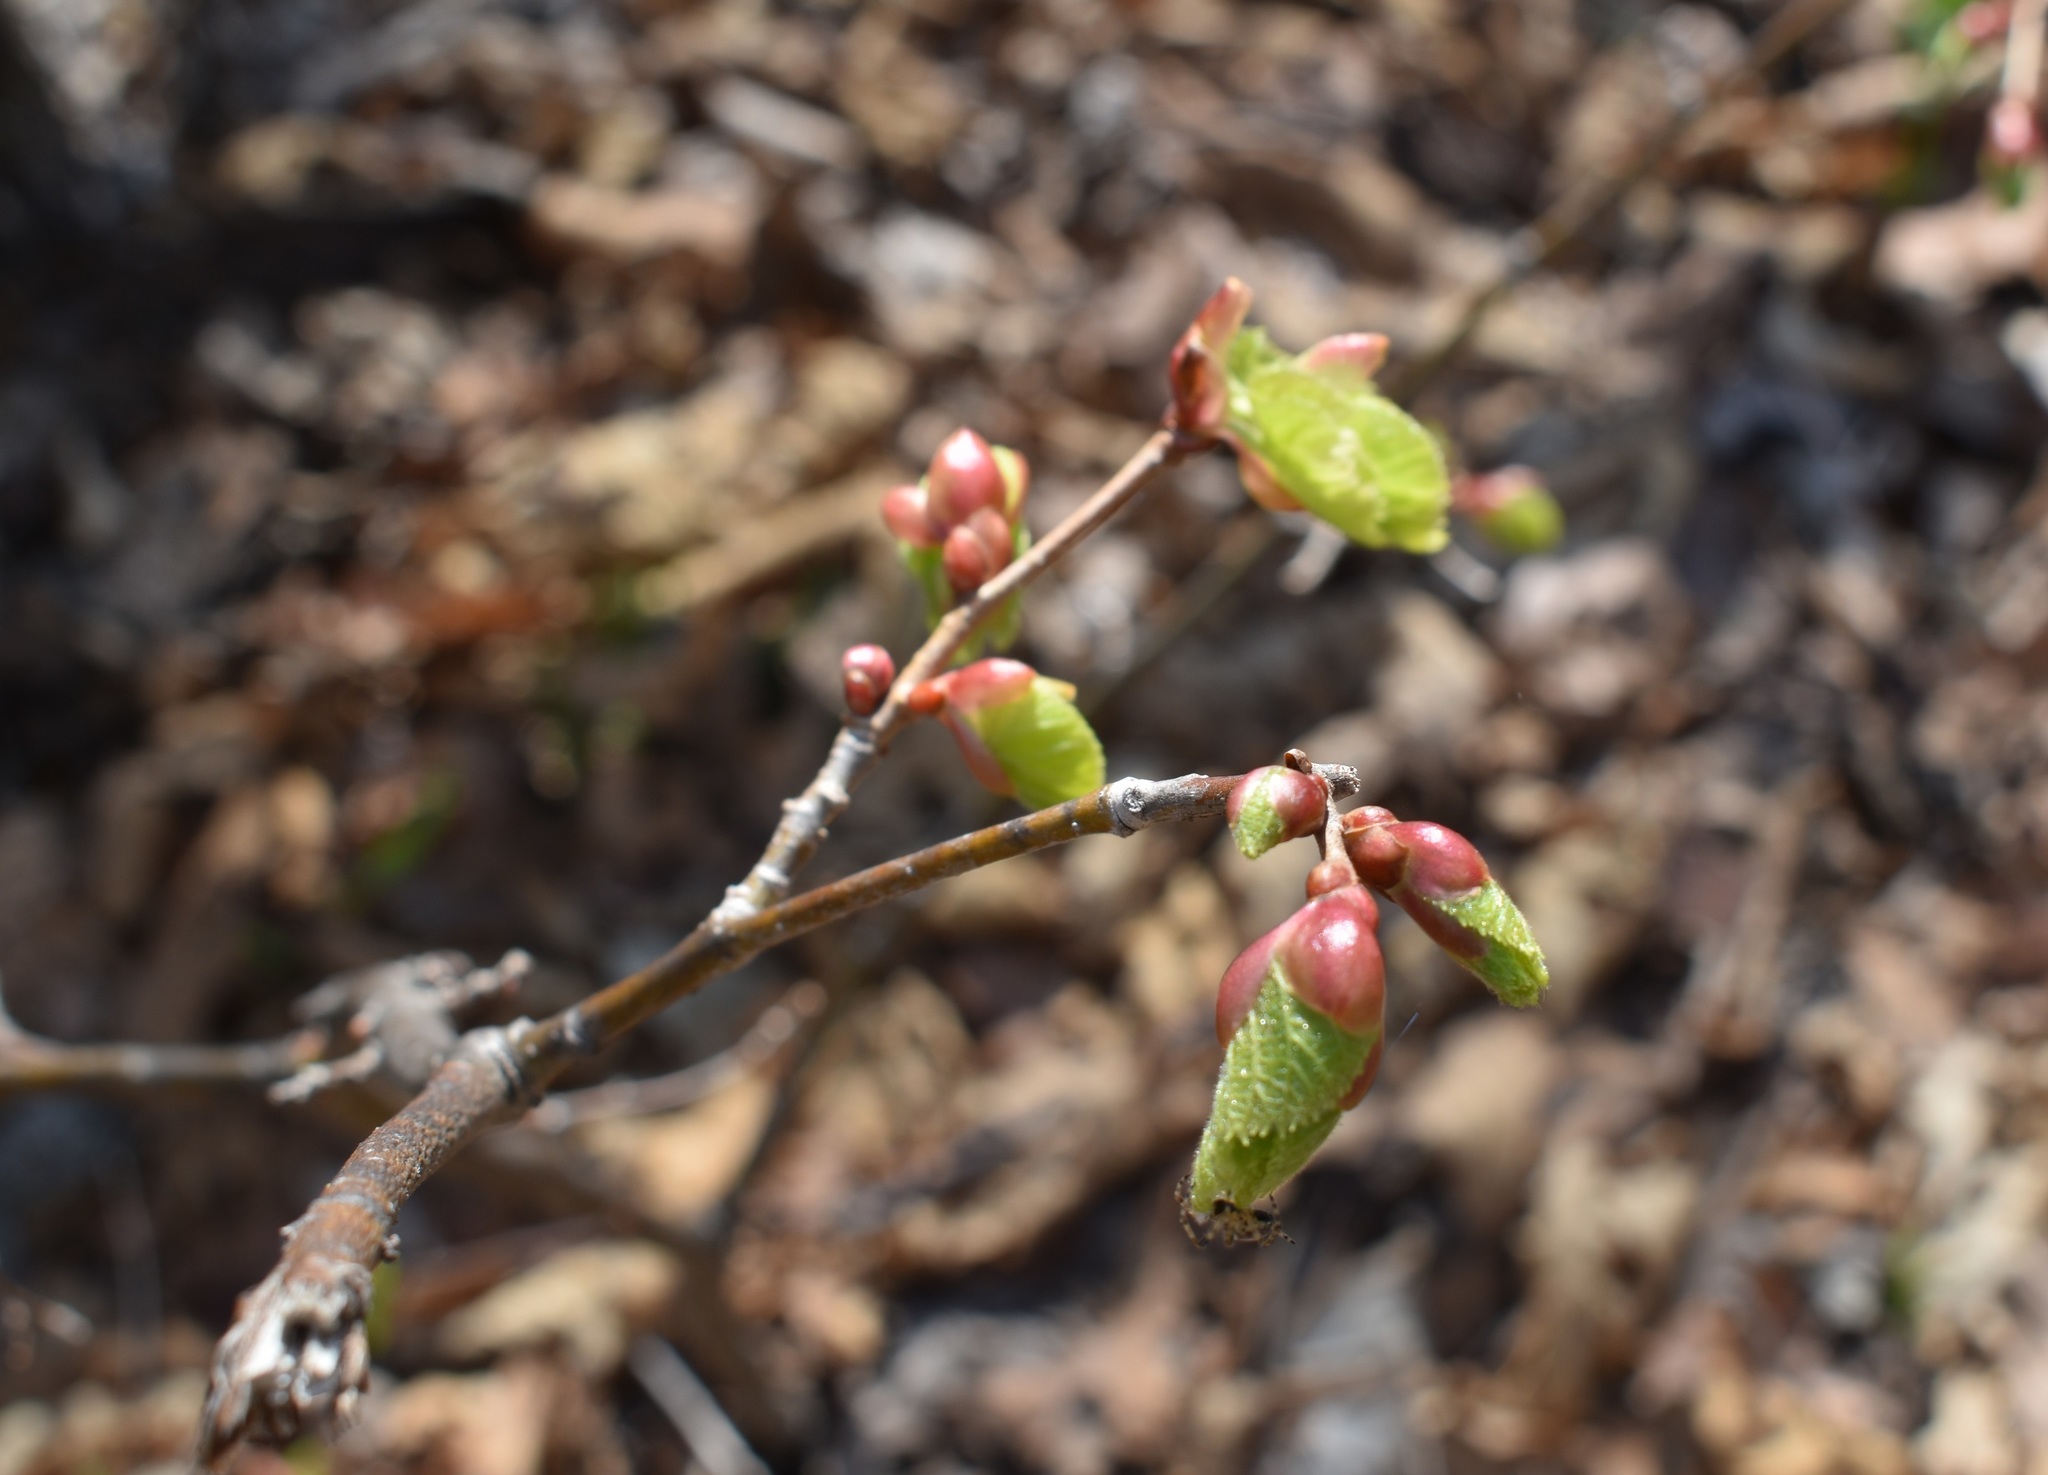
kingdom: Plantae
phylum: Tracheophyta
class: Magnoliopsida
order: Malvales
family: Malvaceae
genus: Tilia
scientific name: Tilia amurensis
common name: Amur lime
